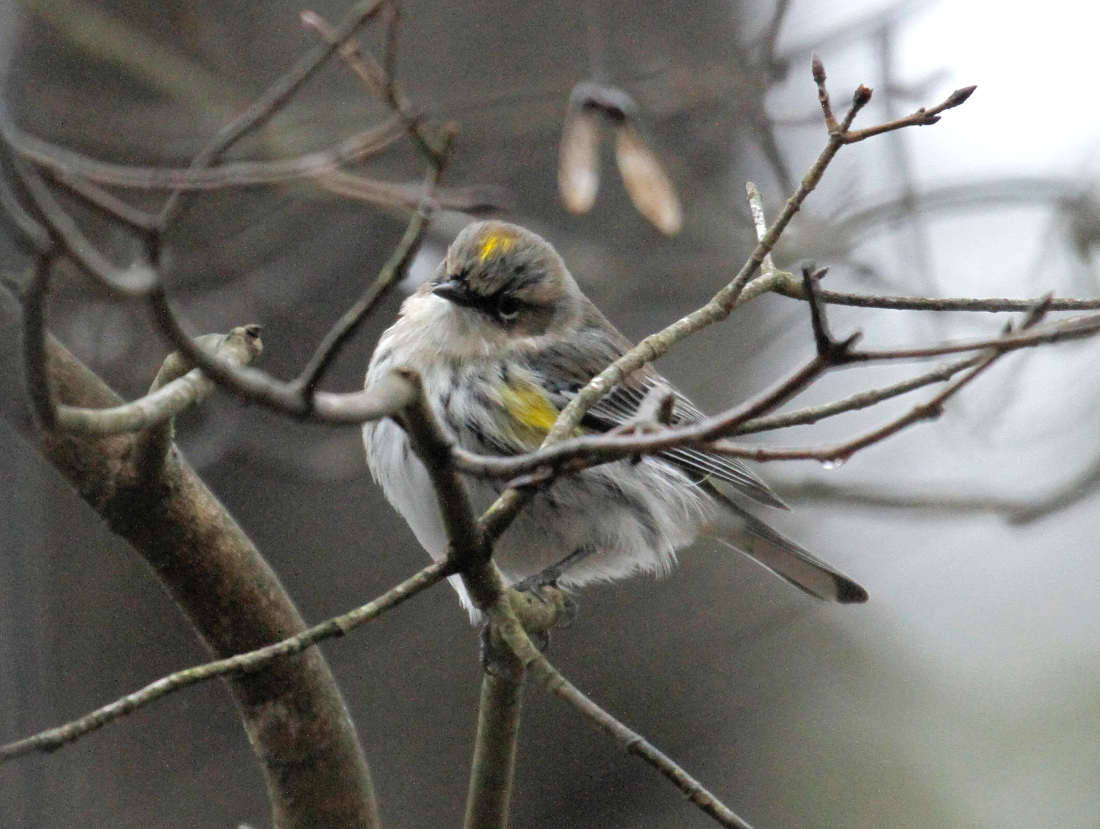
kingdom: Animalia
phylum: Chordata
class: Aves
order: Passeriformes
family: Parulidae
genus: Setophaga
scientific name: Setophaga coronata
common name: Myrtle warbler
